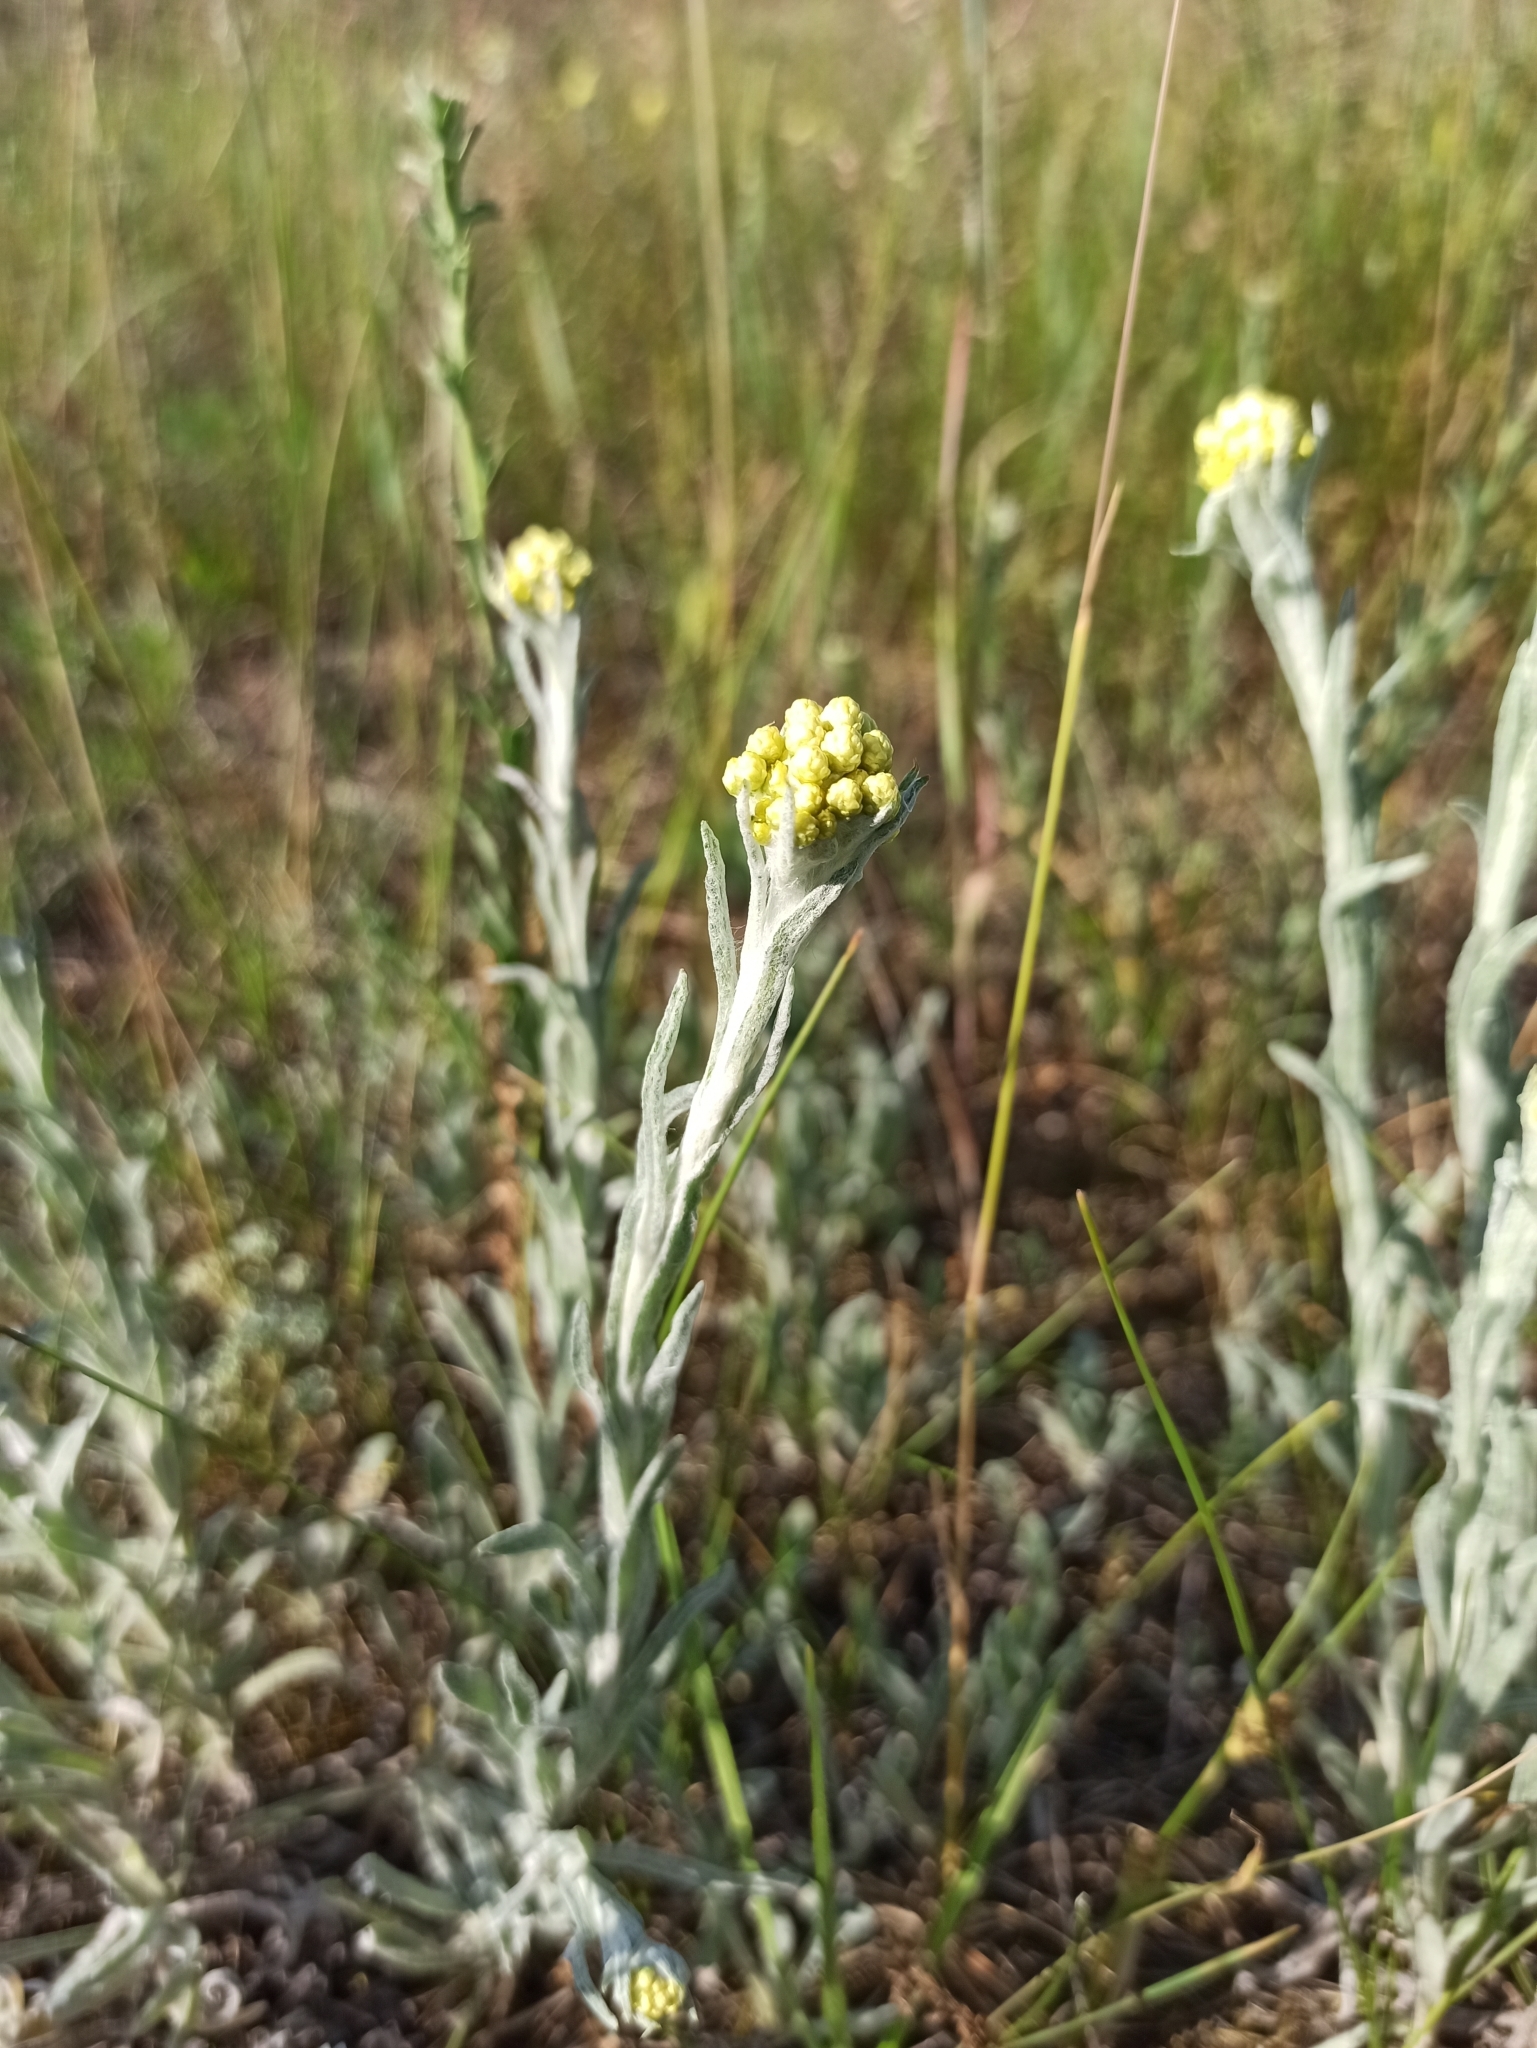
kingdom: Plantae
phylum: Tracheophyta
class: Magnoliopsida
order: Asterales
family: Asteraceae
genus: Helichrysum
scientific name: Helichrysum arenarium
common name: Strawflower
